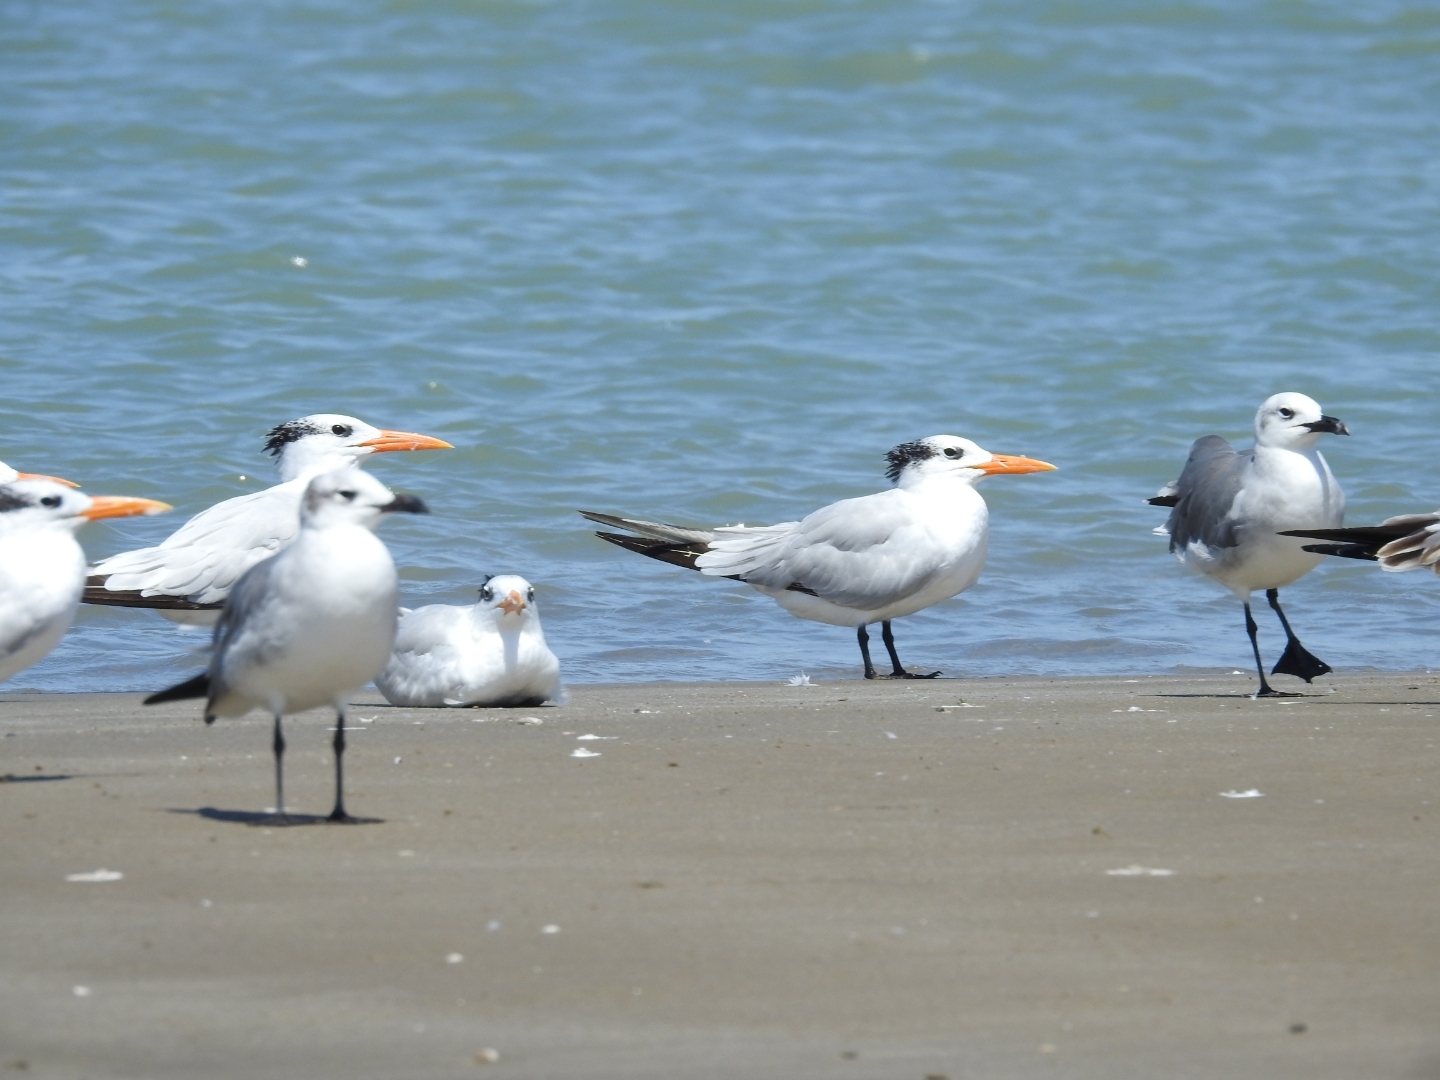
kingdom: Animalia
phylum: Chordata
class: Aves
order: Charadriiformes
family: Laridae
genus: Thalasseus
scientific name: Thalasseus maximus
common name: Royal tern
